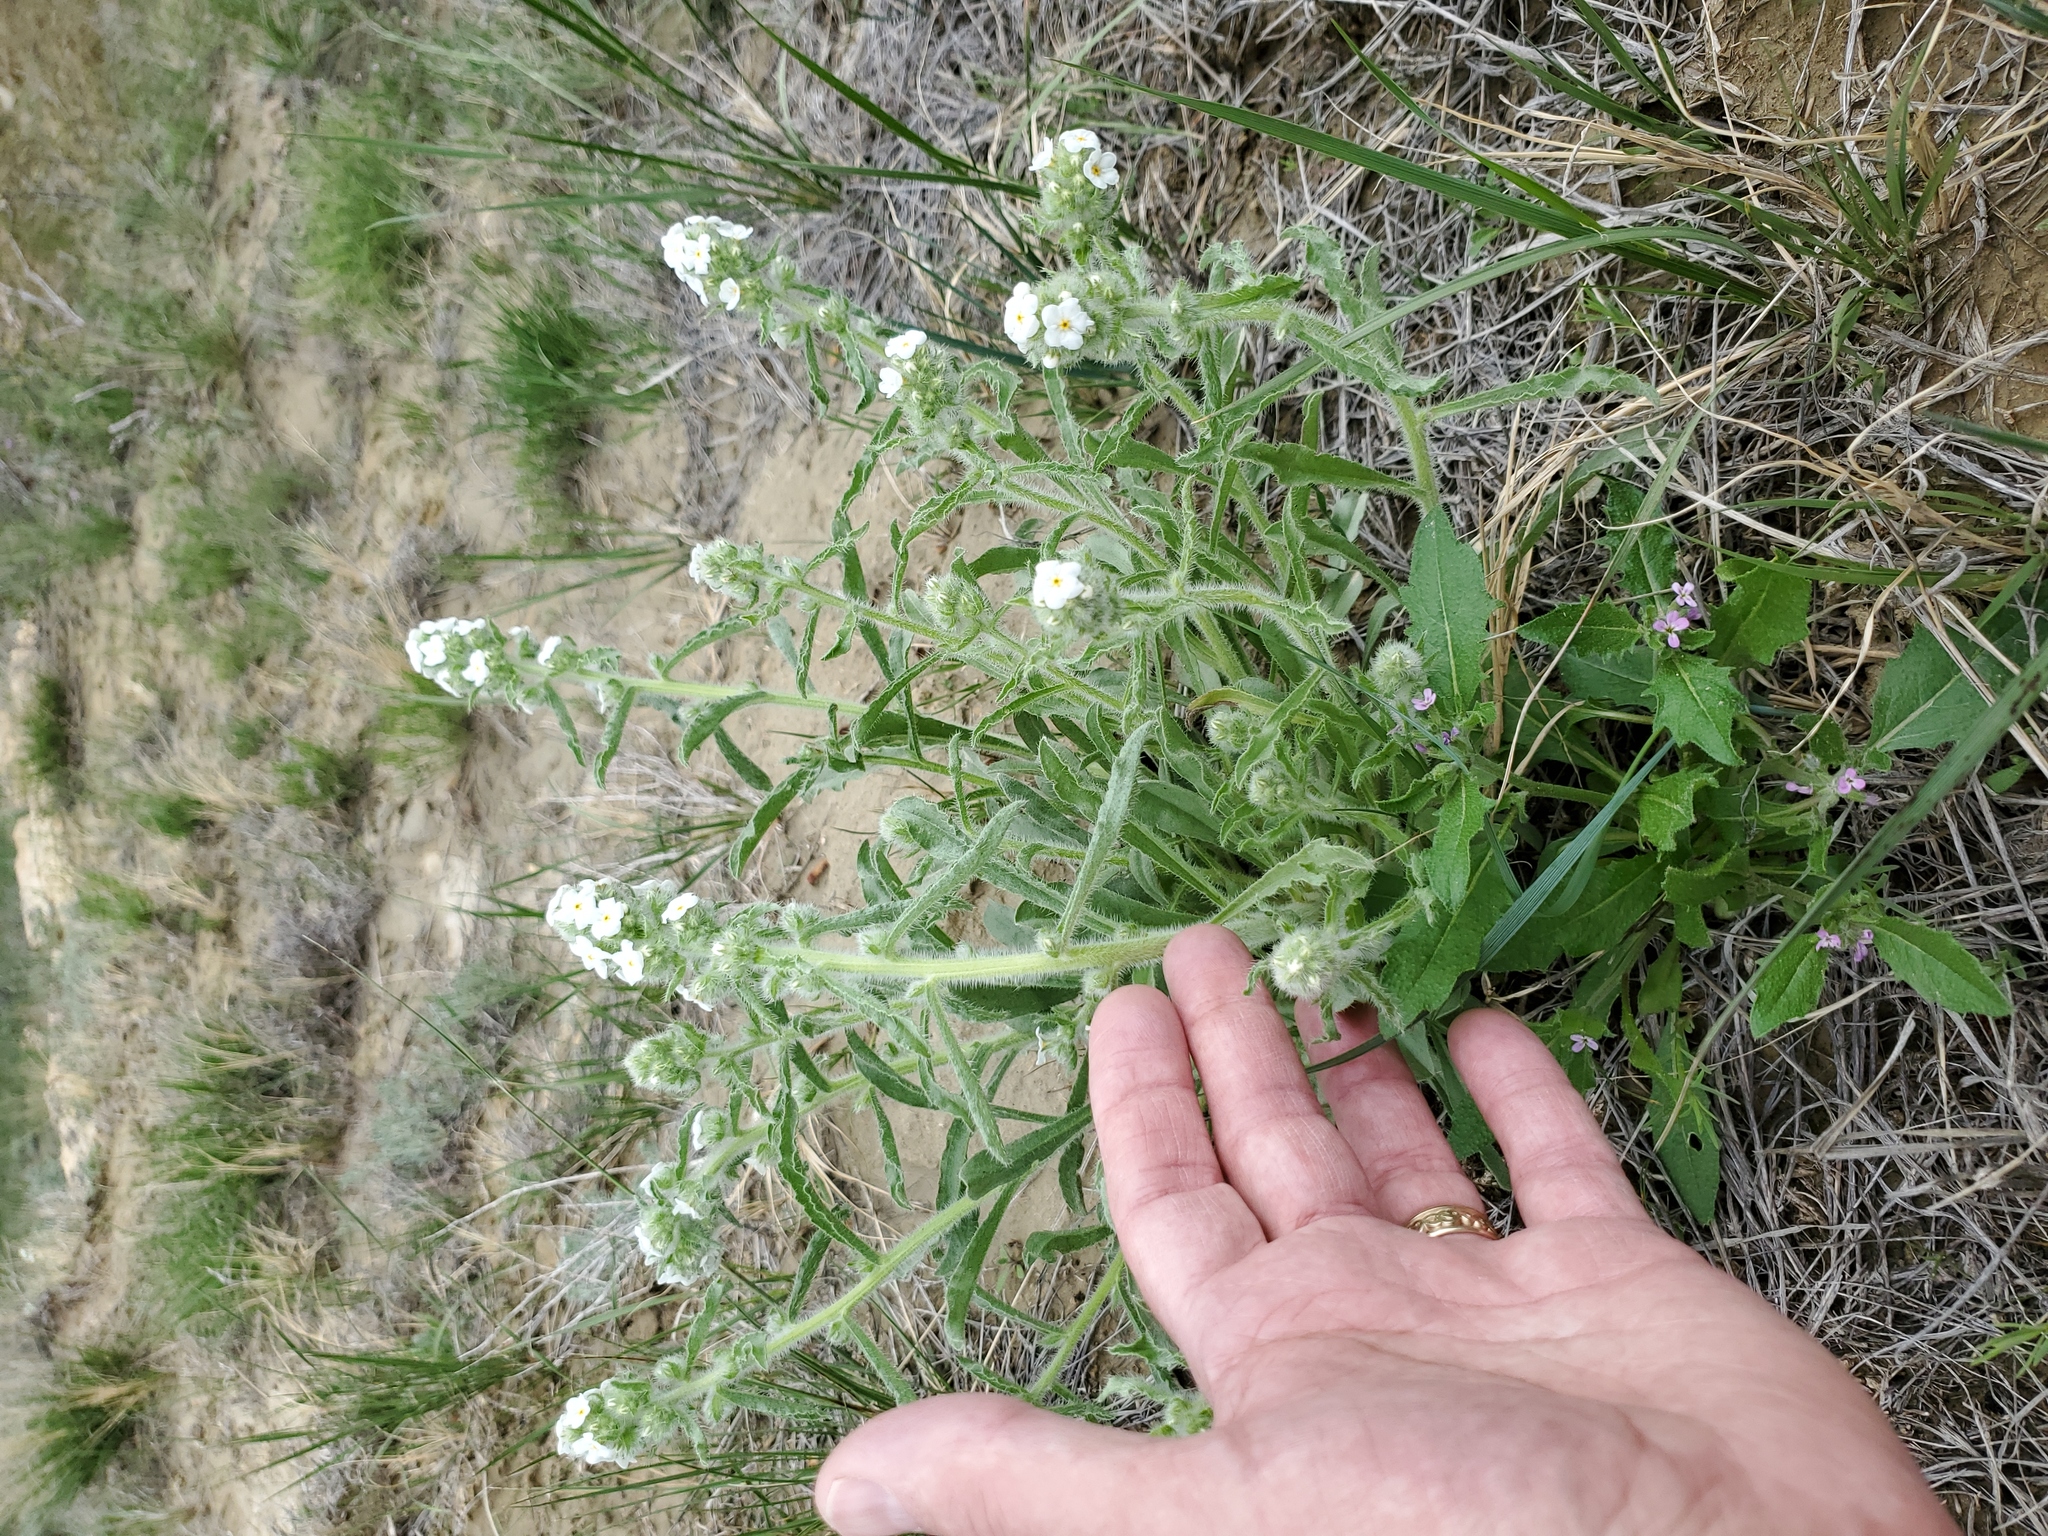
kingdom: Plantae
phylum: Tracheophyta
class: Magnoliopsida
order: Boraginales
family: Boraginaceae
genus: Oreocarya
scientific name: Oreocarya glomerata
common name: Macoun's cryptantha
